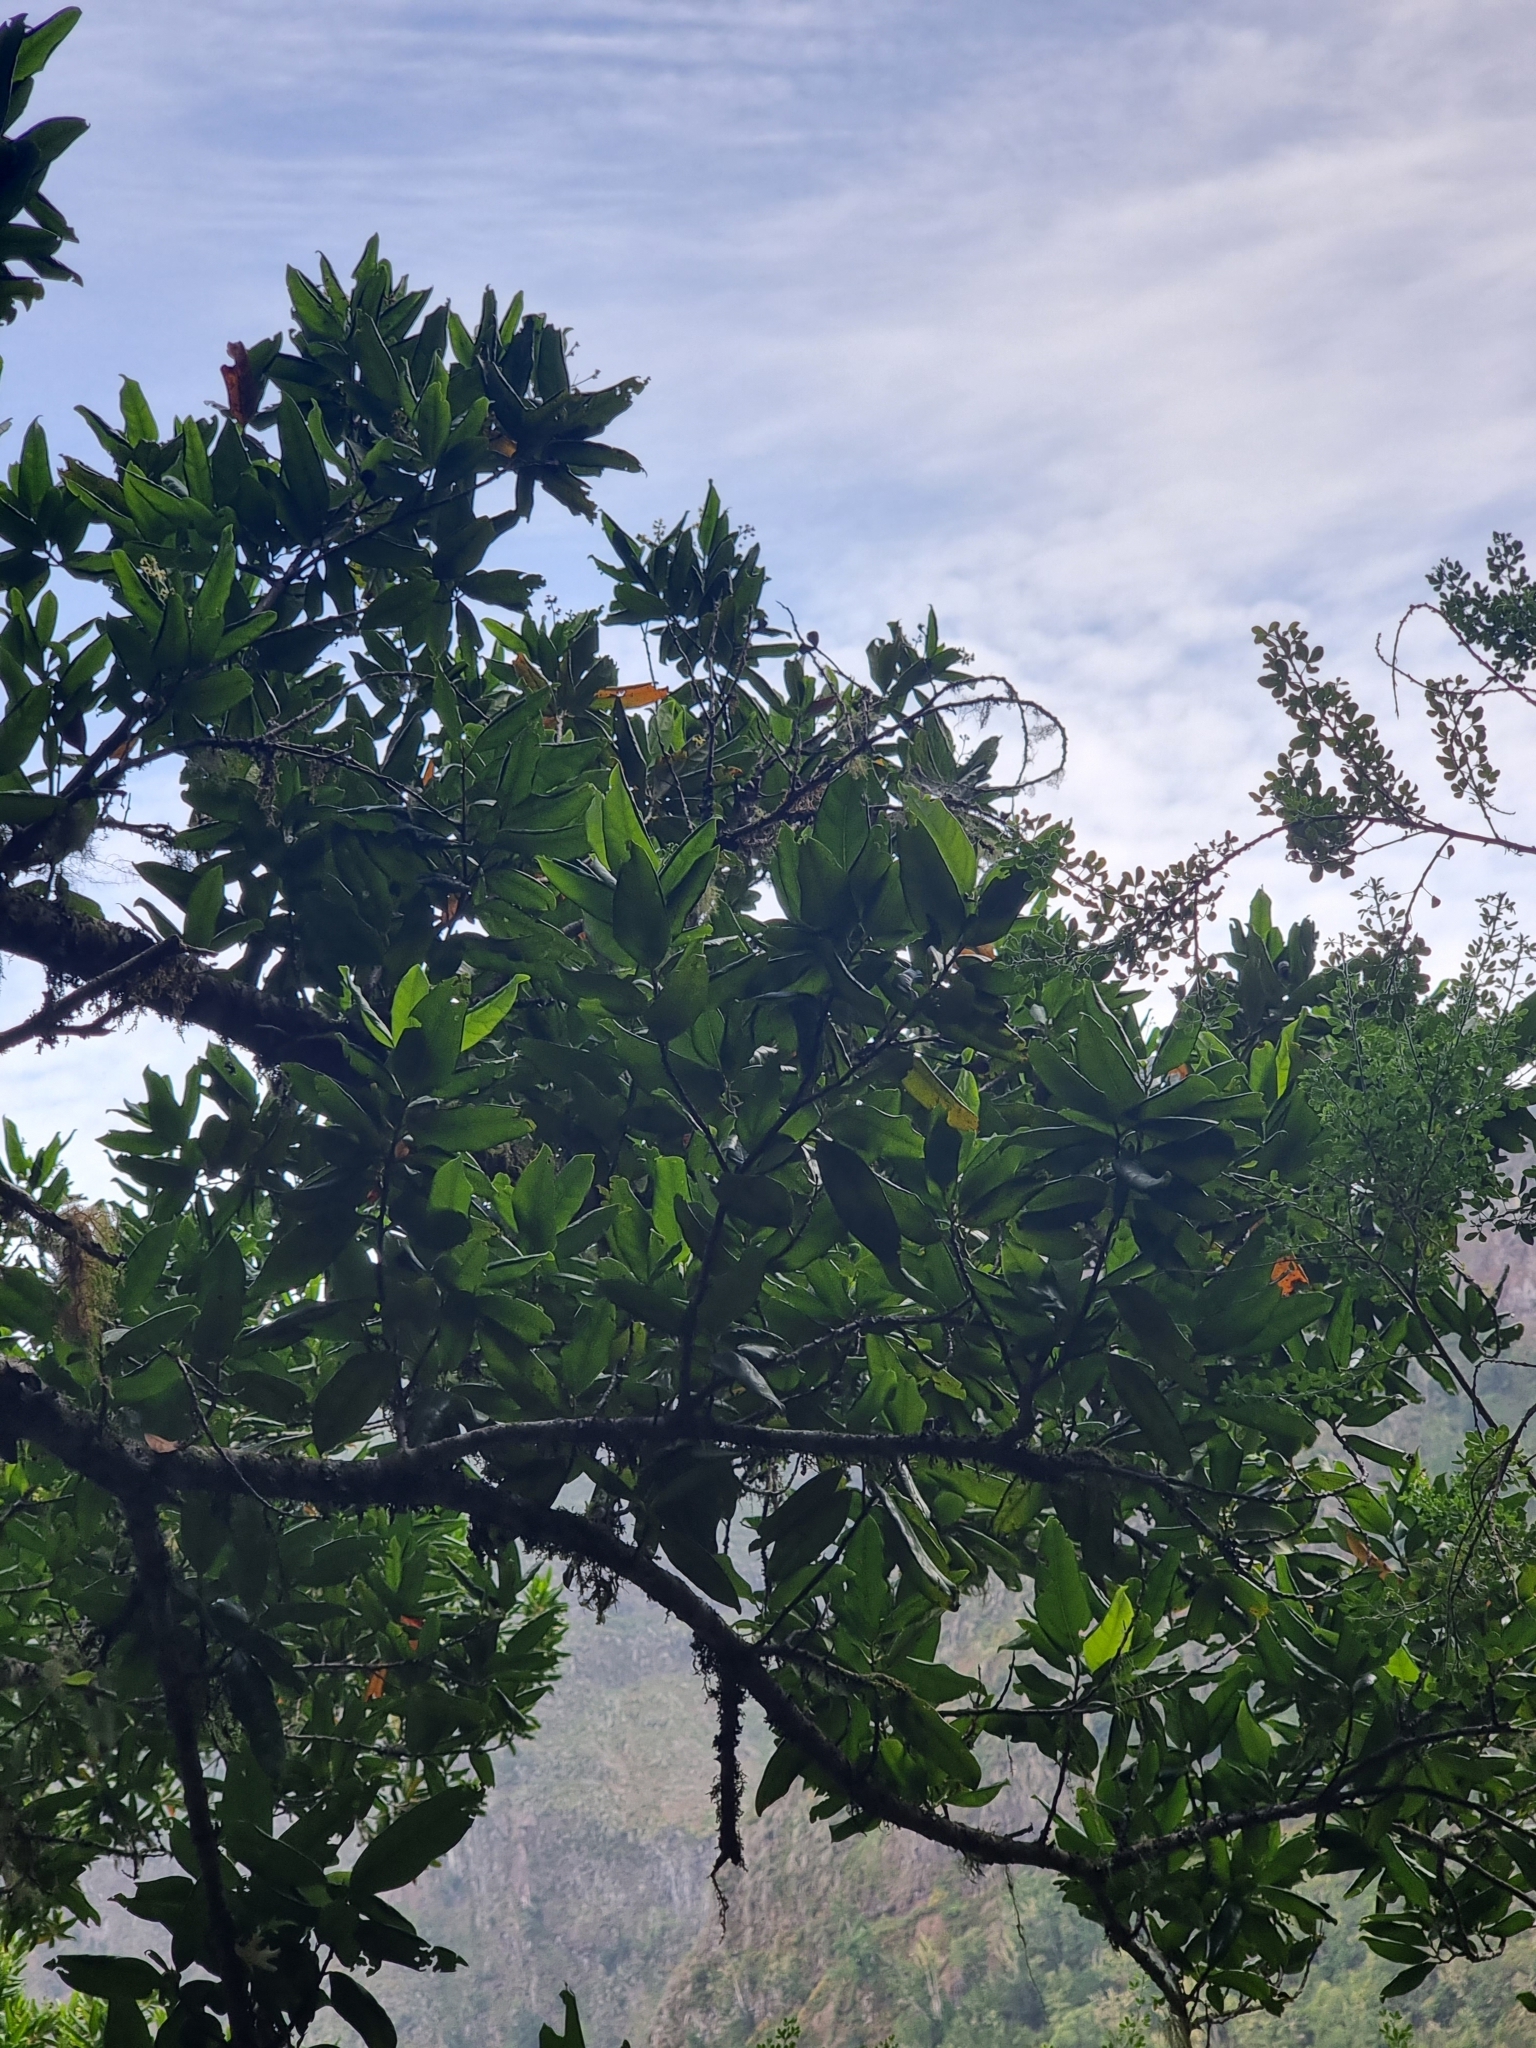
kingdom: Plantae
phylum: Tracheophyta
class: Magnoliopsida
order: Laurales
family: Lauraceae
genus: Mespilodaphne
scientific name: Mespilodaphne foetens
